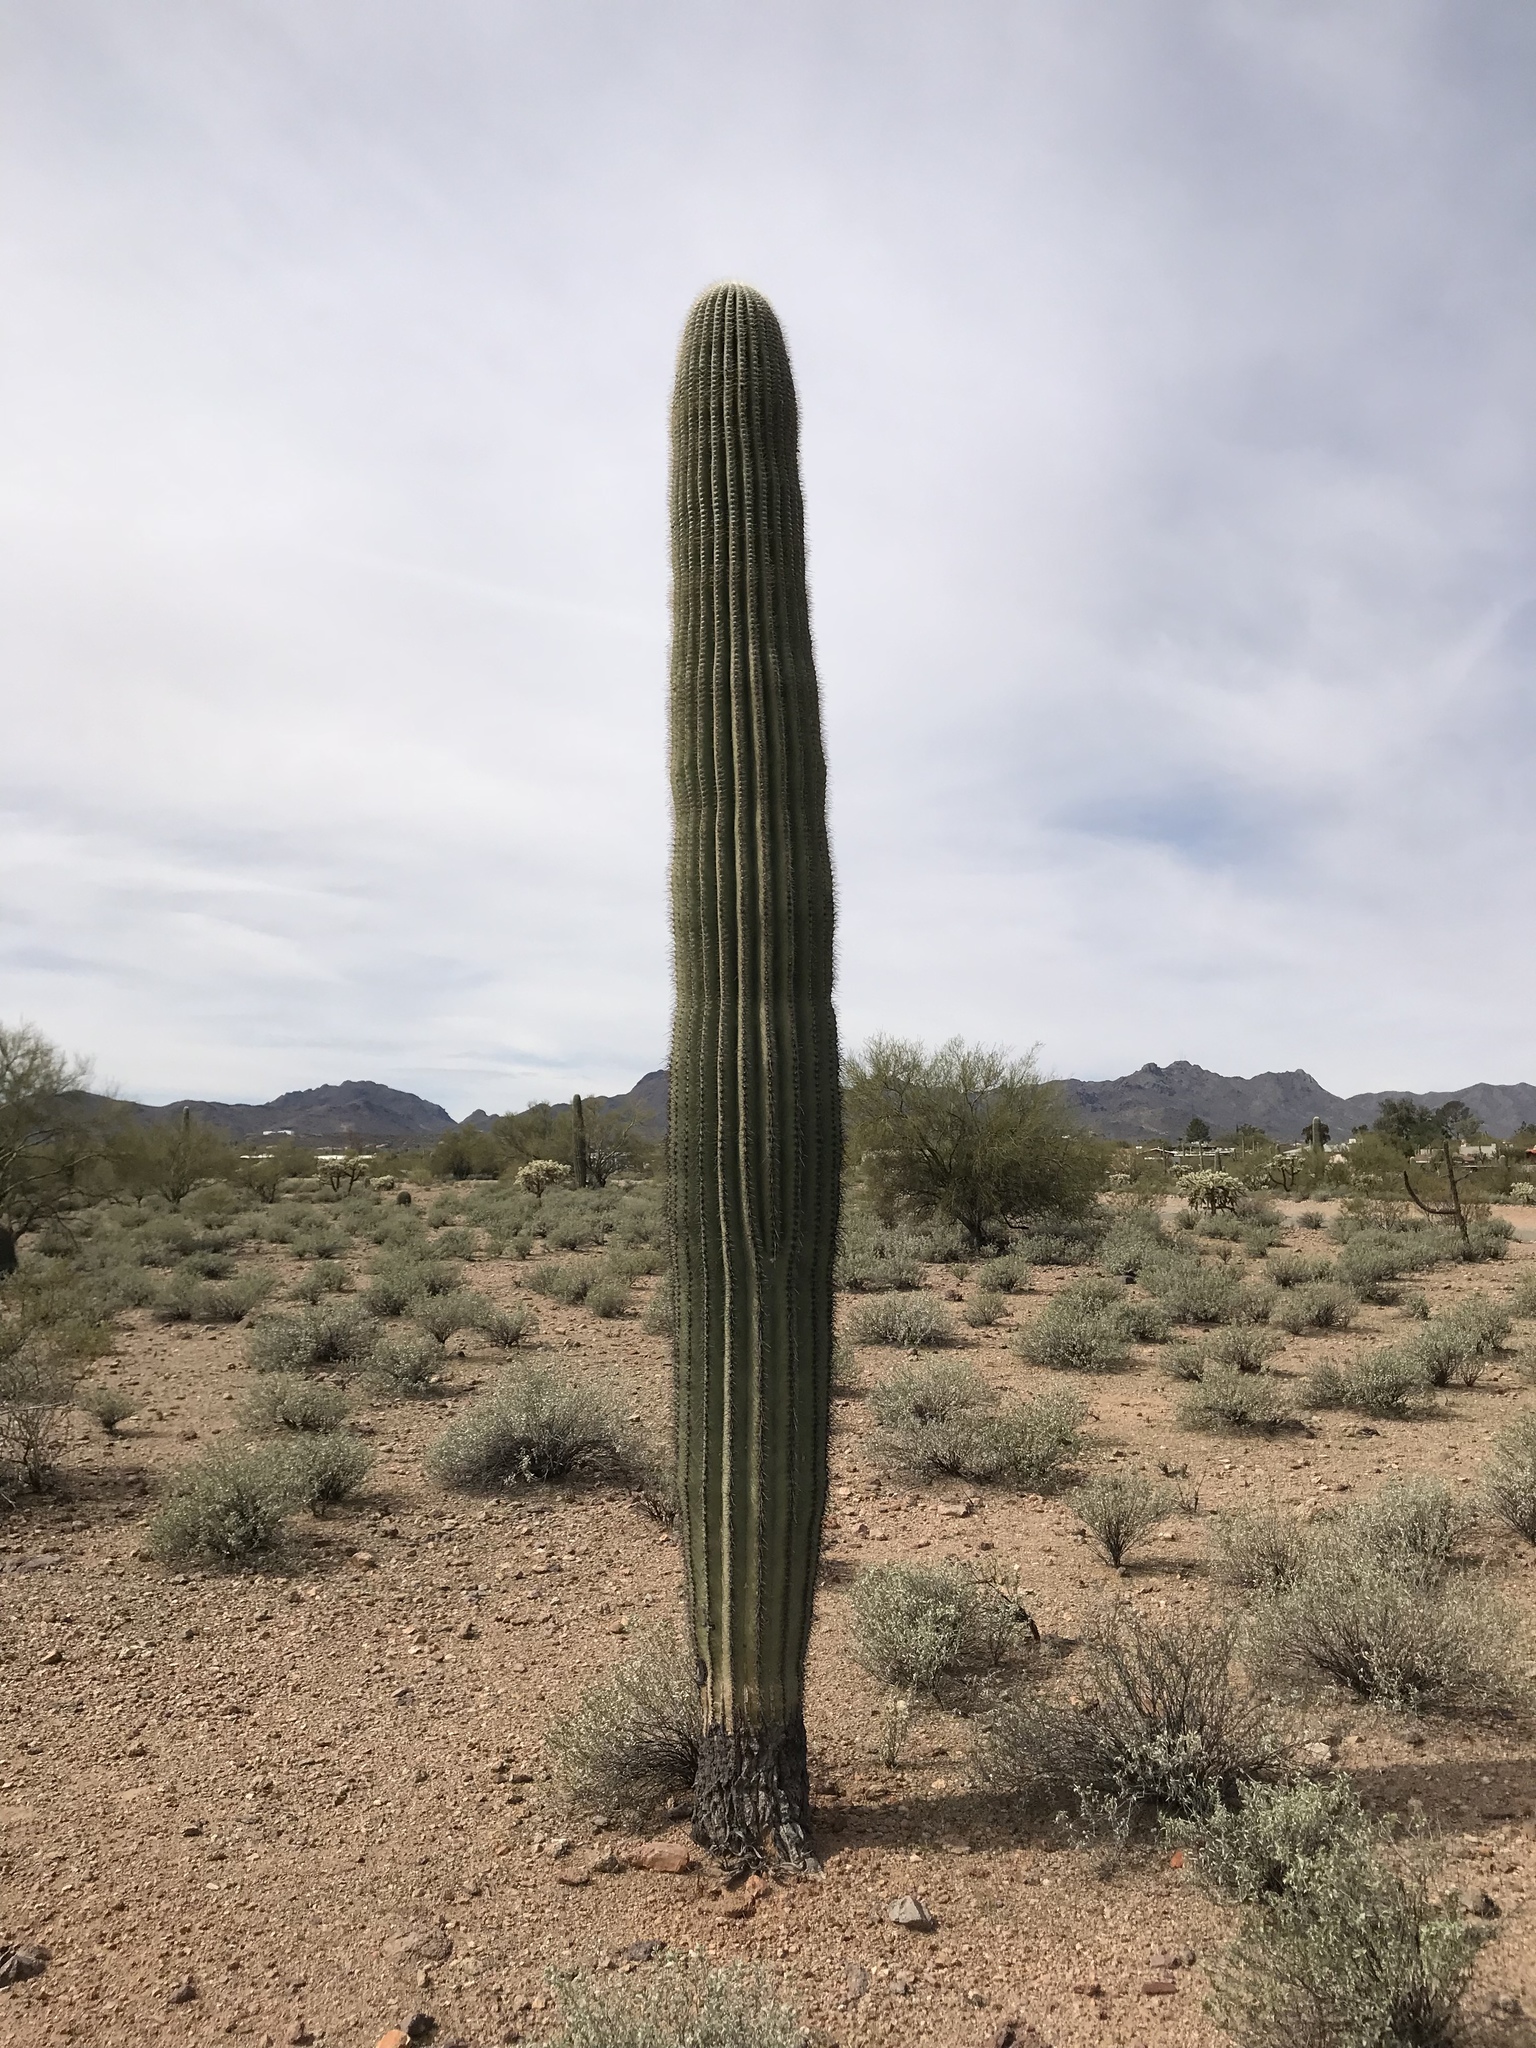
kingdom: Plantae
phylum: Tracheophyta
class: Magnoliopsida
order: Caryophyllales
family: Cactaceae
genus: Carnegiea
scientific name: Carnegiea gigantea
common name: Saguaro
